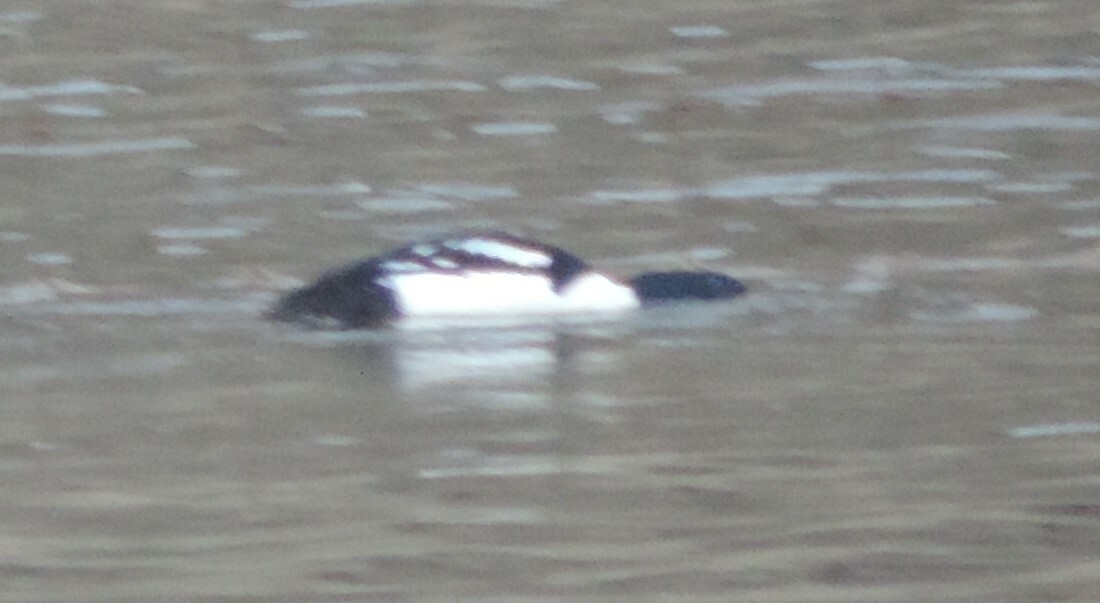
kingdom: Animalia
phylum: Chordata
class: Aves
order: Anseriformes
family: Anatidae
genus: Bucephala
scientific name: Bucephala islandica
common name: Barrow's goldeneye
